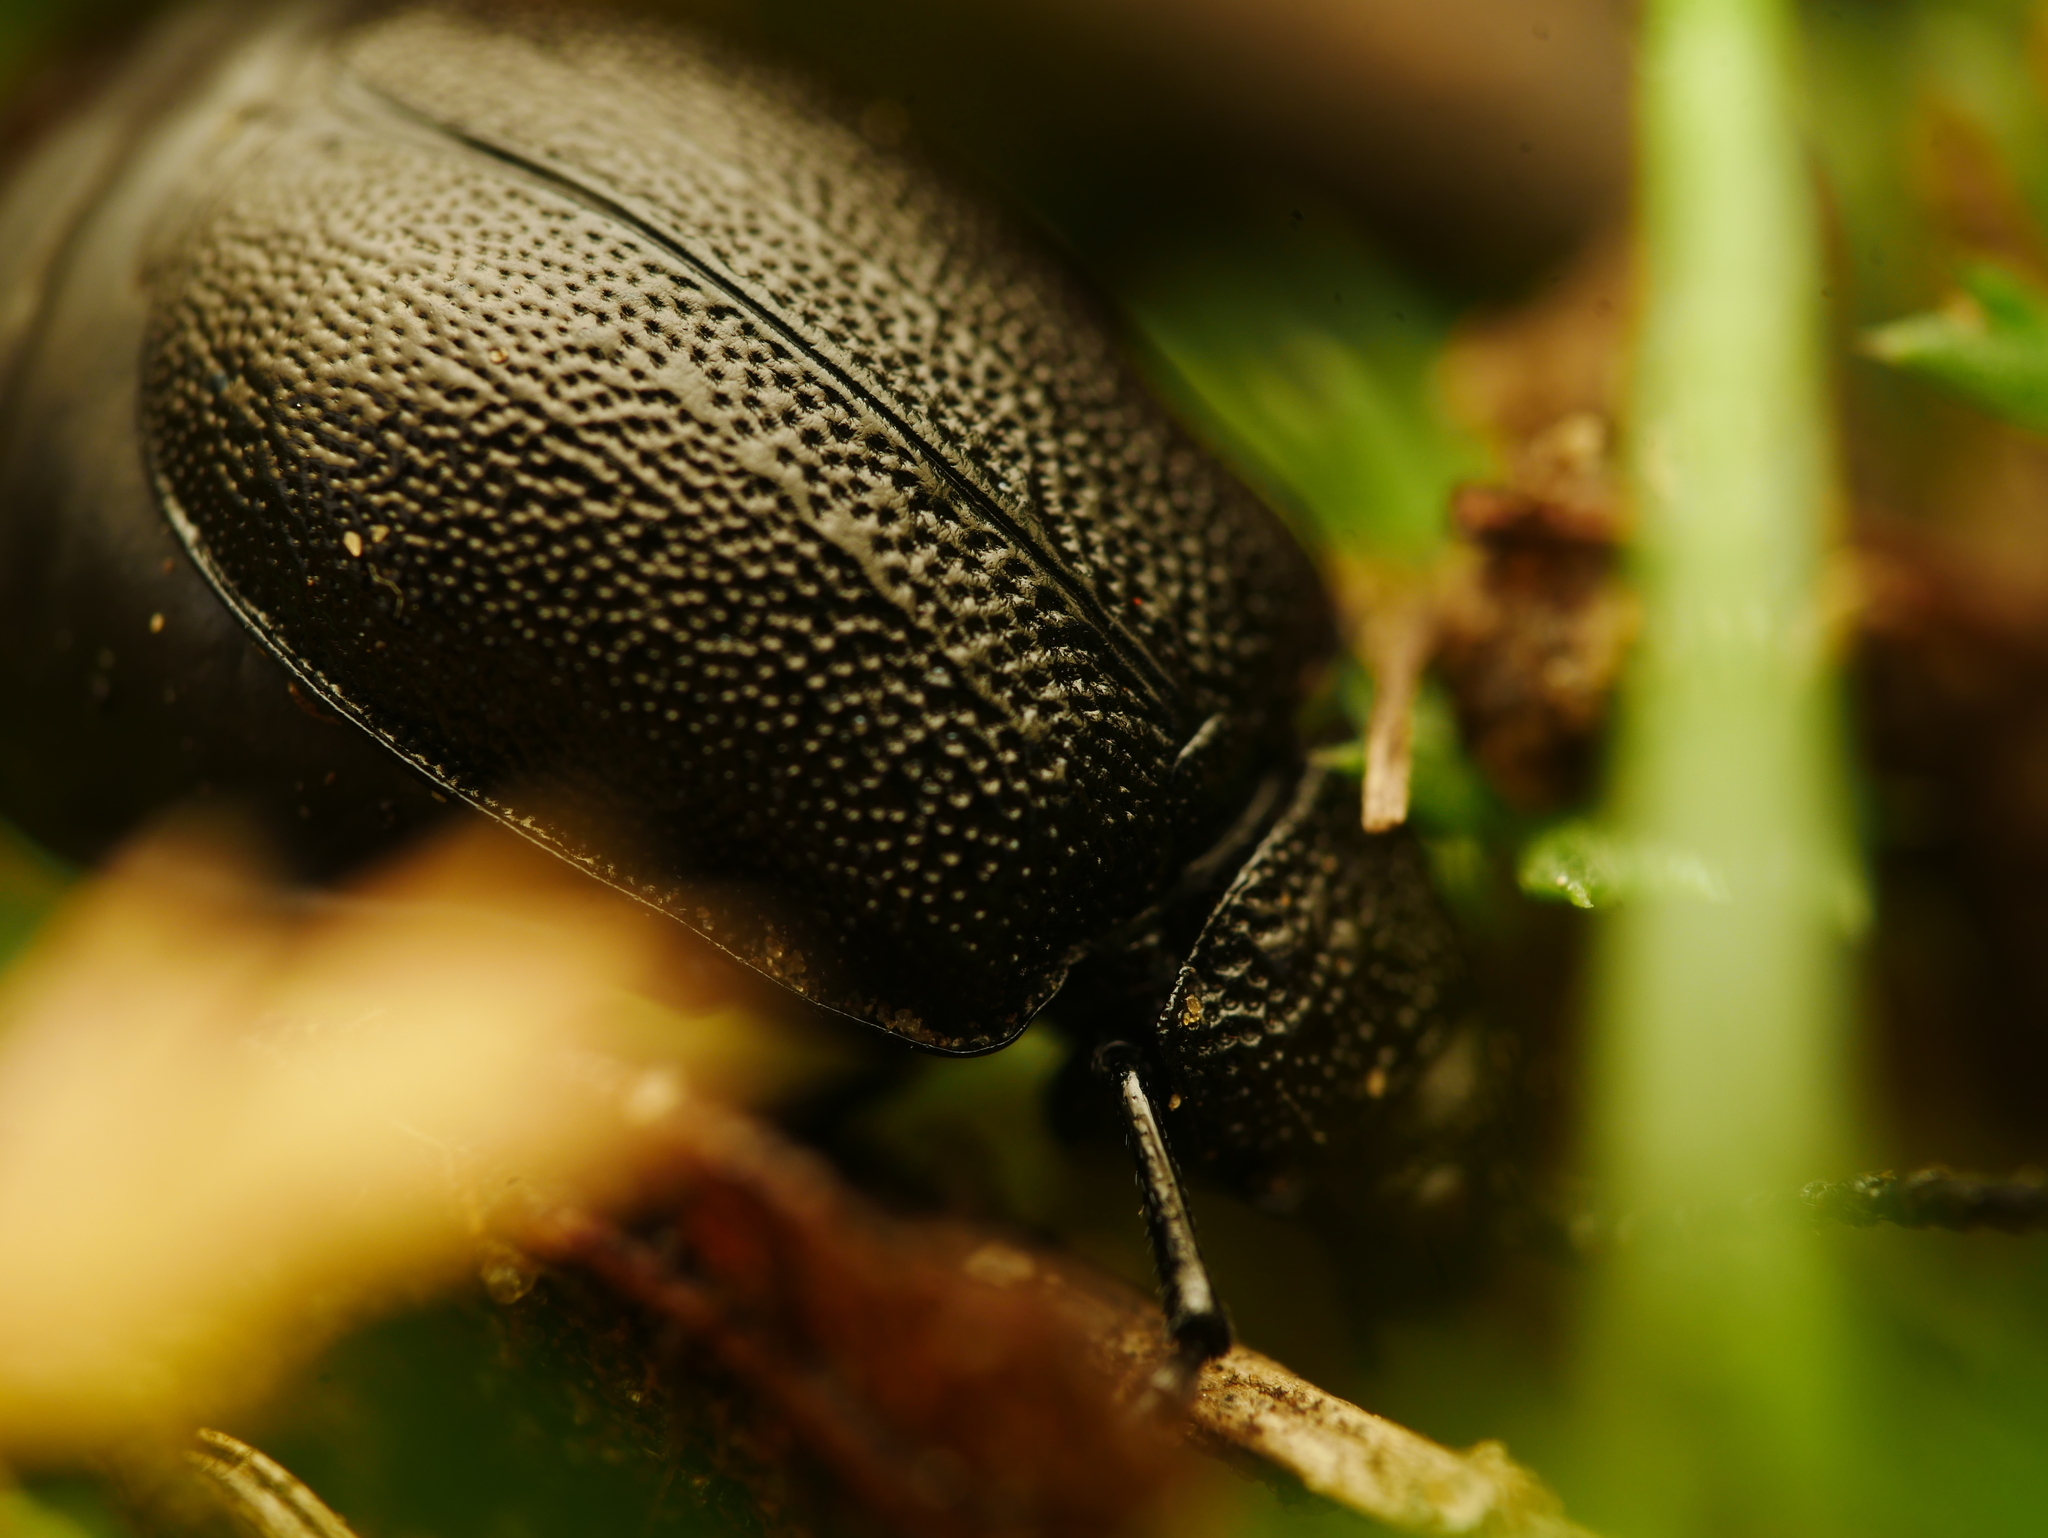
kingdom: Animalia
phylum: Arthropoda
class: Insecta
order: Coleoptera
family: Chrysomelidae
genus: Galeruca
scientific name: Galeruca tanaceti
